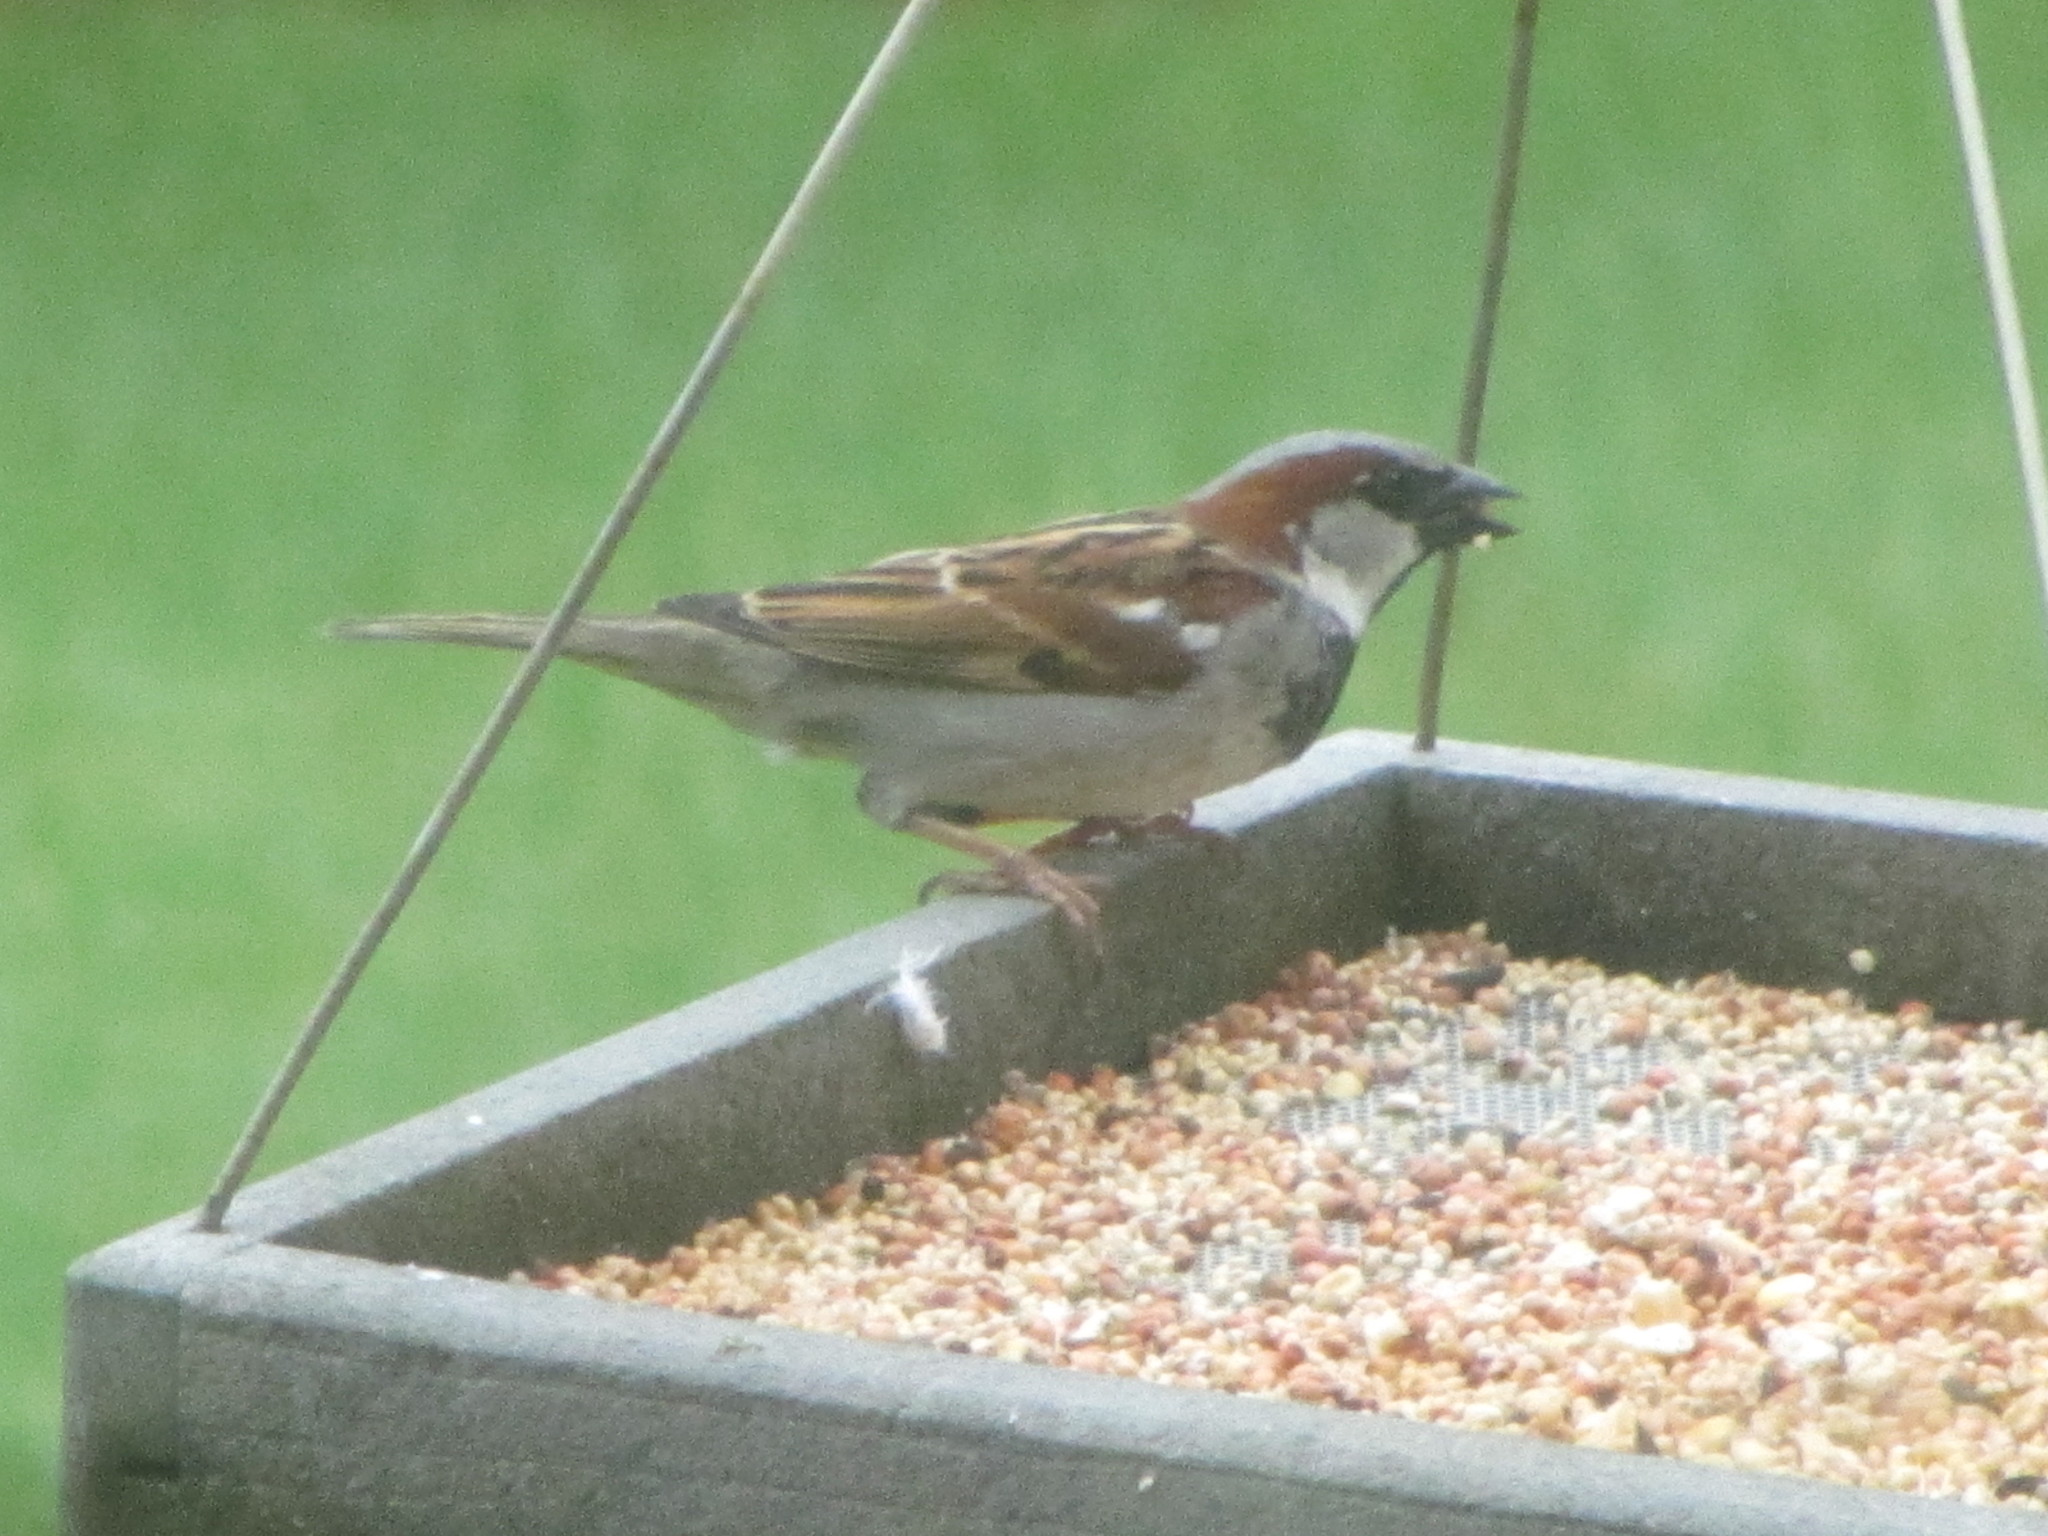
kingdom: Animalia
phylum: Chordata
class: Aves
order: Passeriformes
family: Passeridae
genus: Passer
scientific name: Passer domesticus
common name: House sparrow
